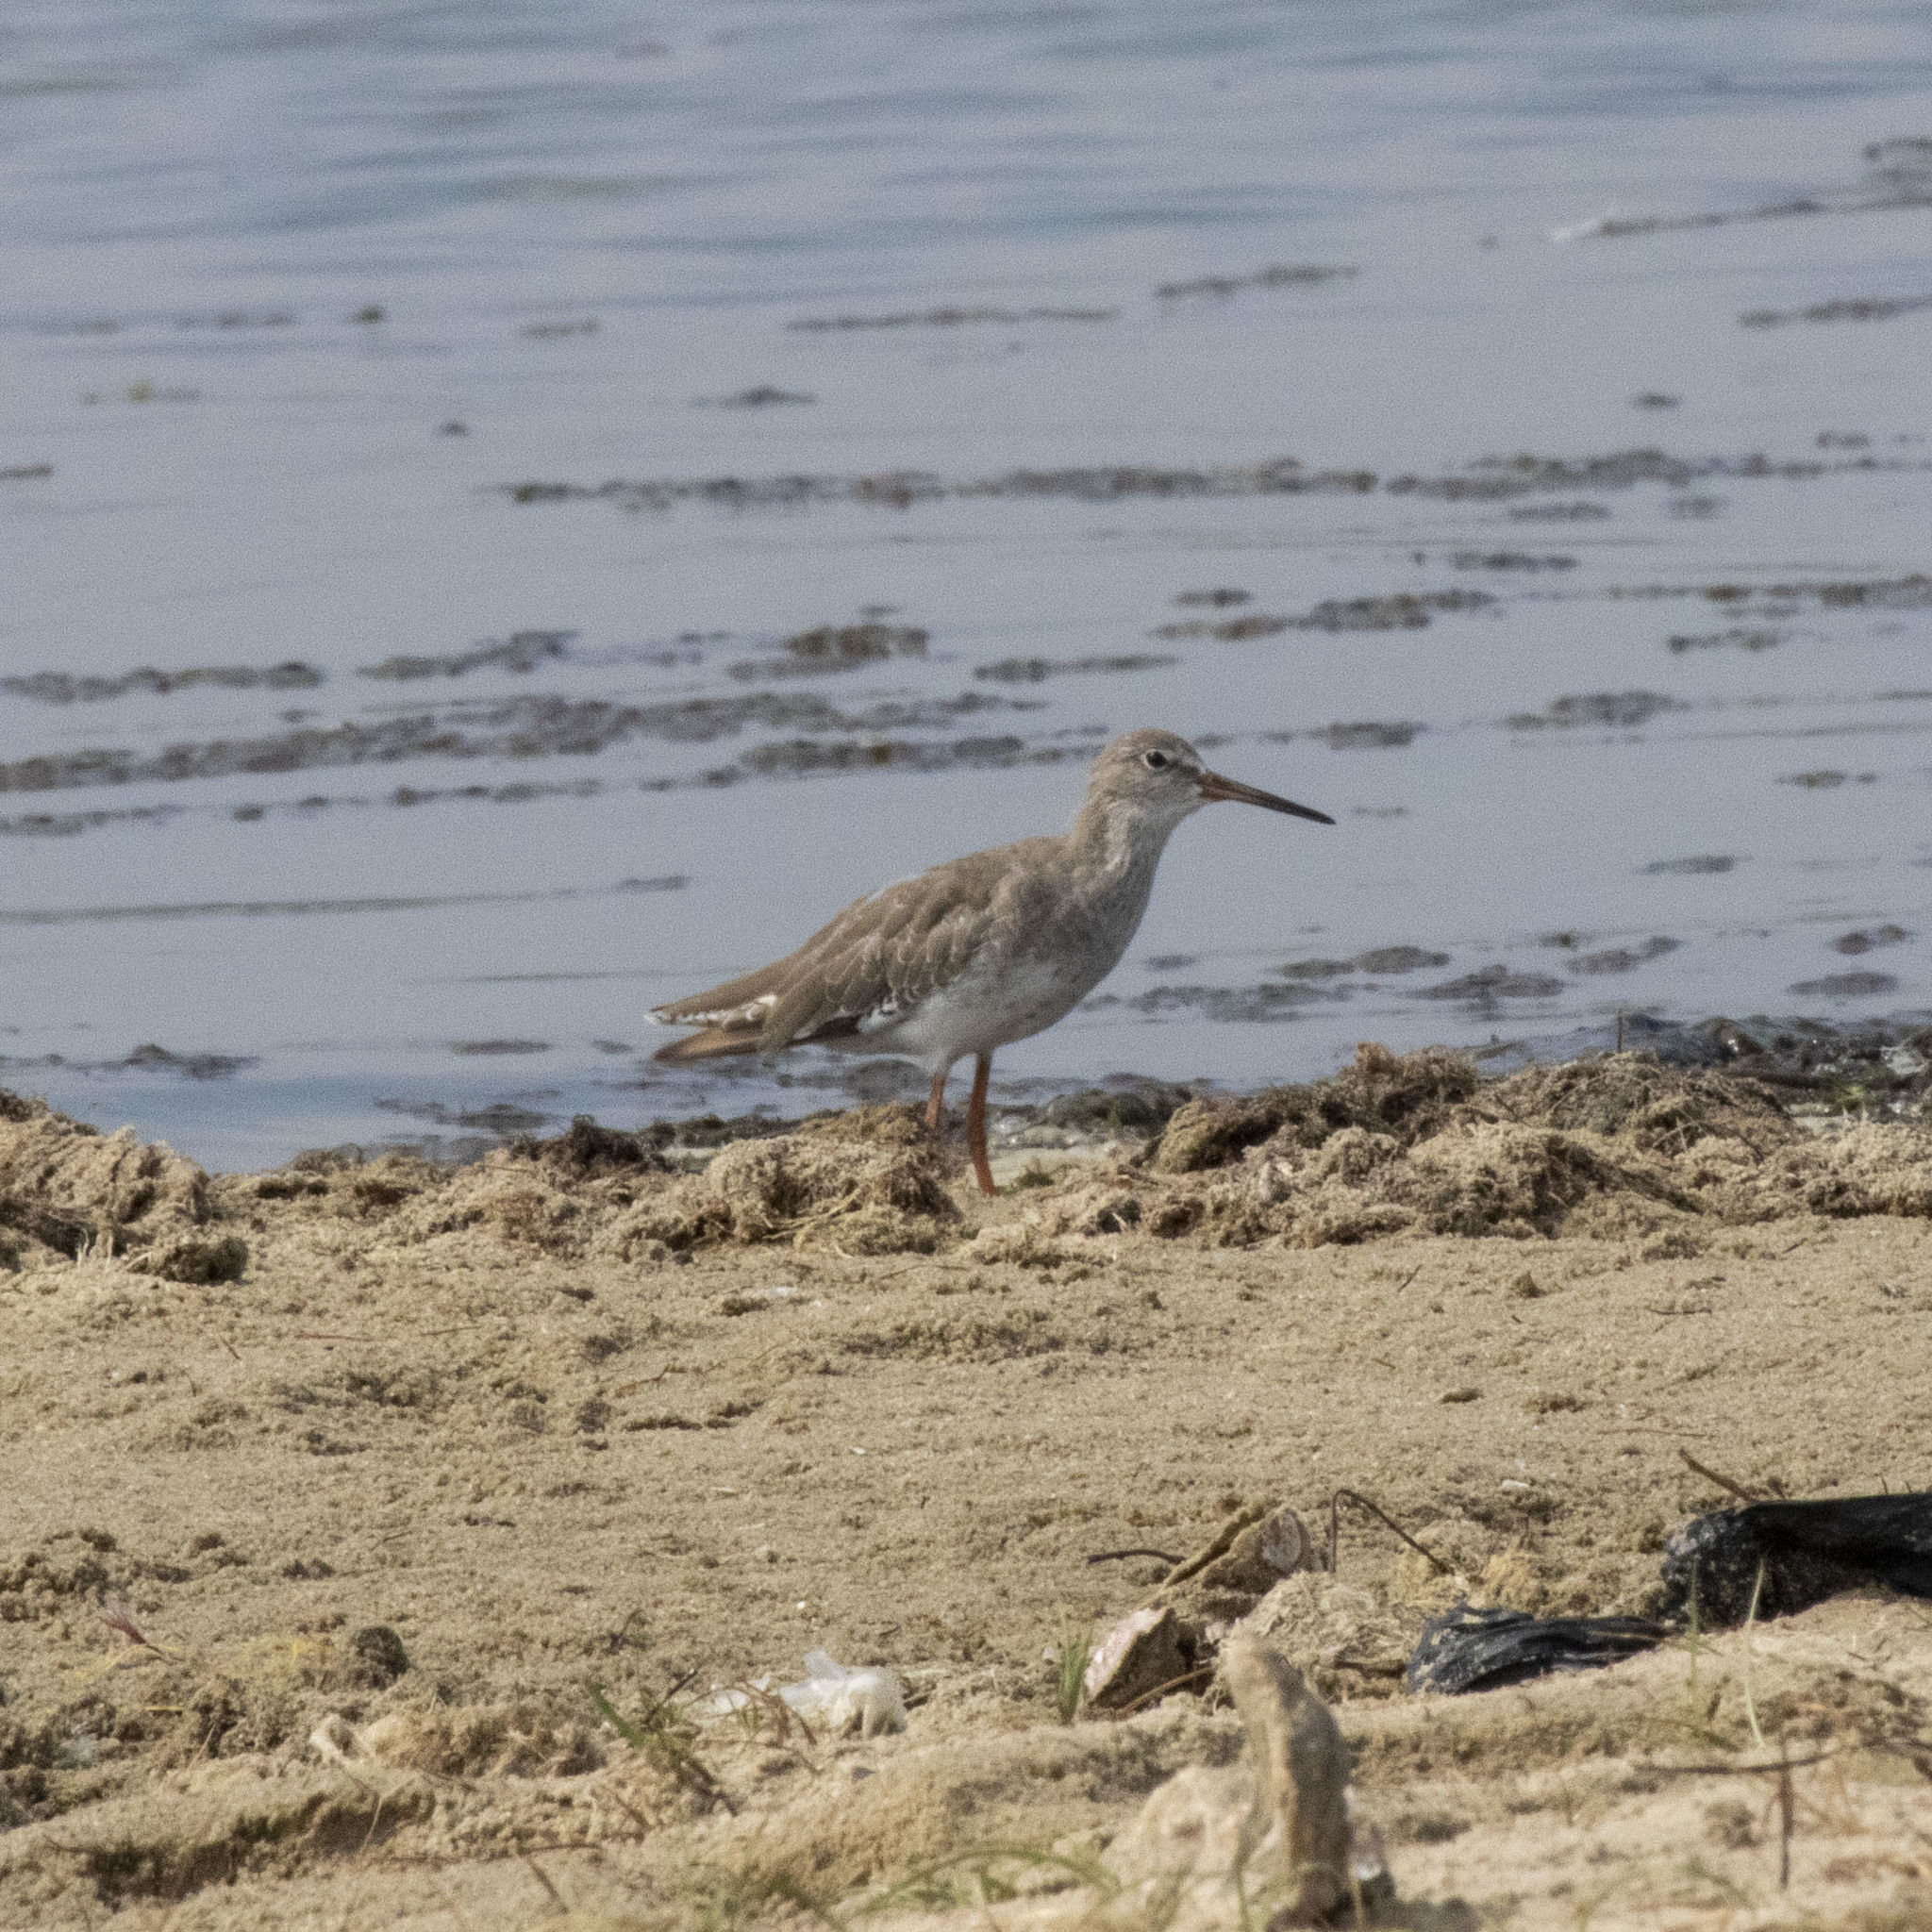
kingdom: Animalia
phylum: Chordata
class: Aves
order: Charadriiformes
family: Scolopacidae
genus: Tringa
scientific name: Tringa totanus
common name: Common redshank
